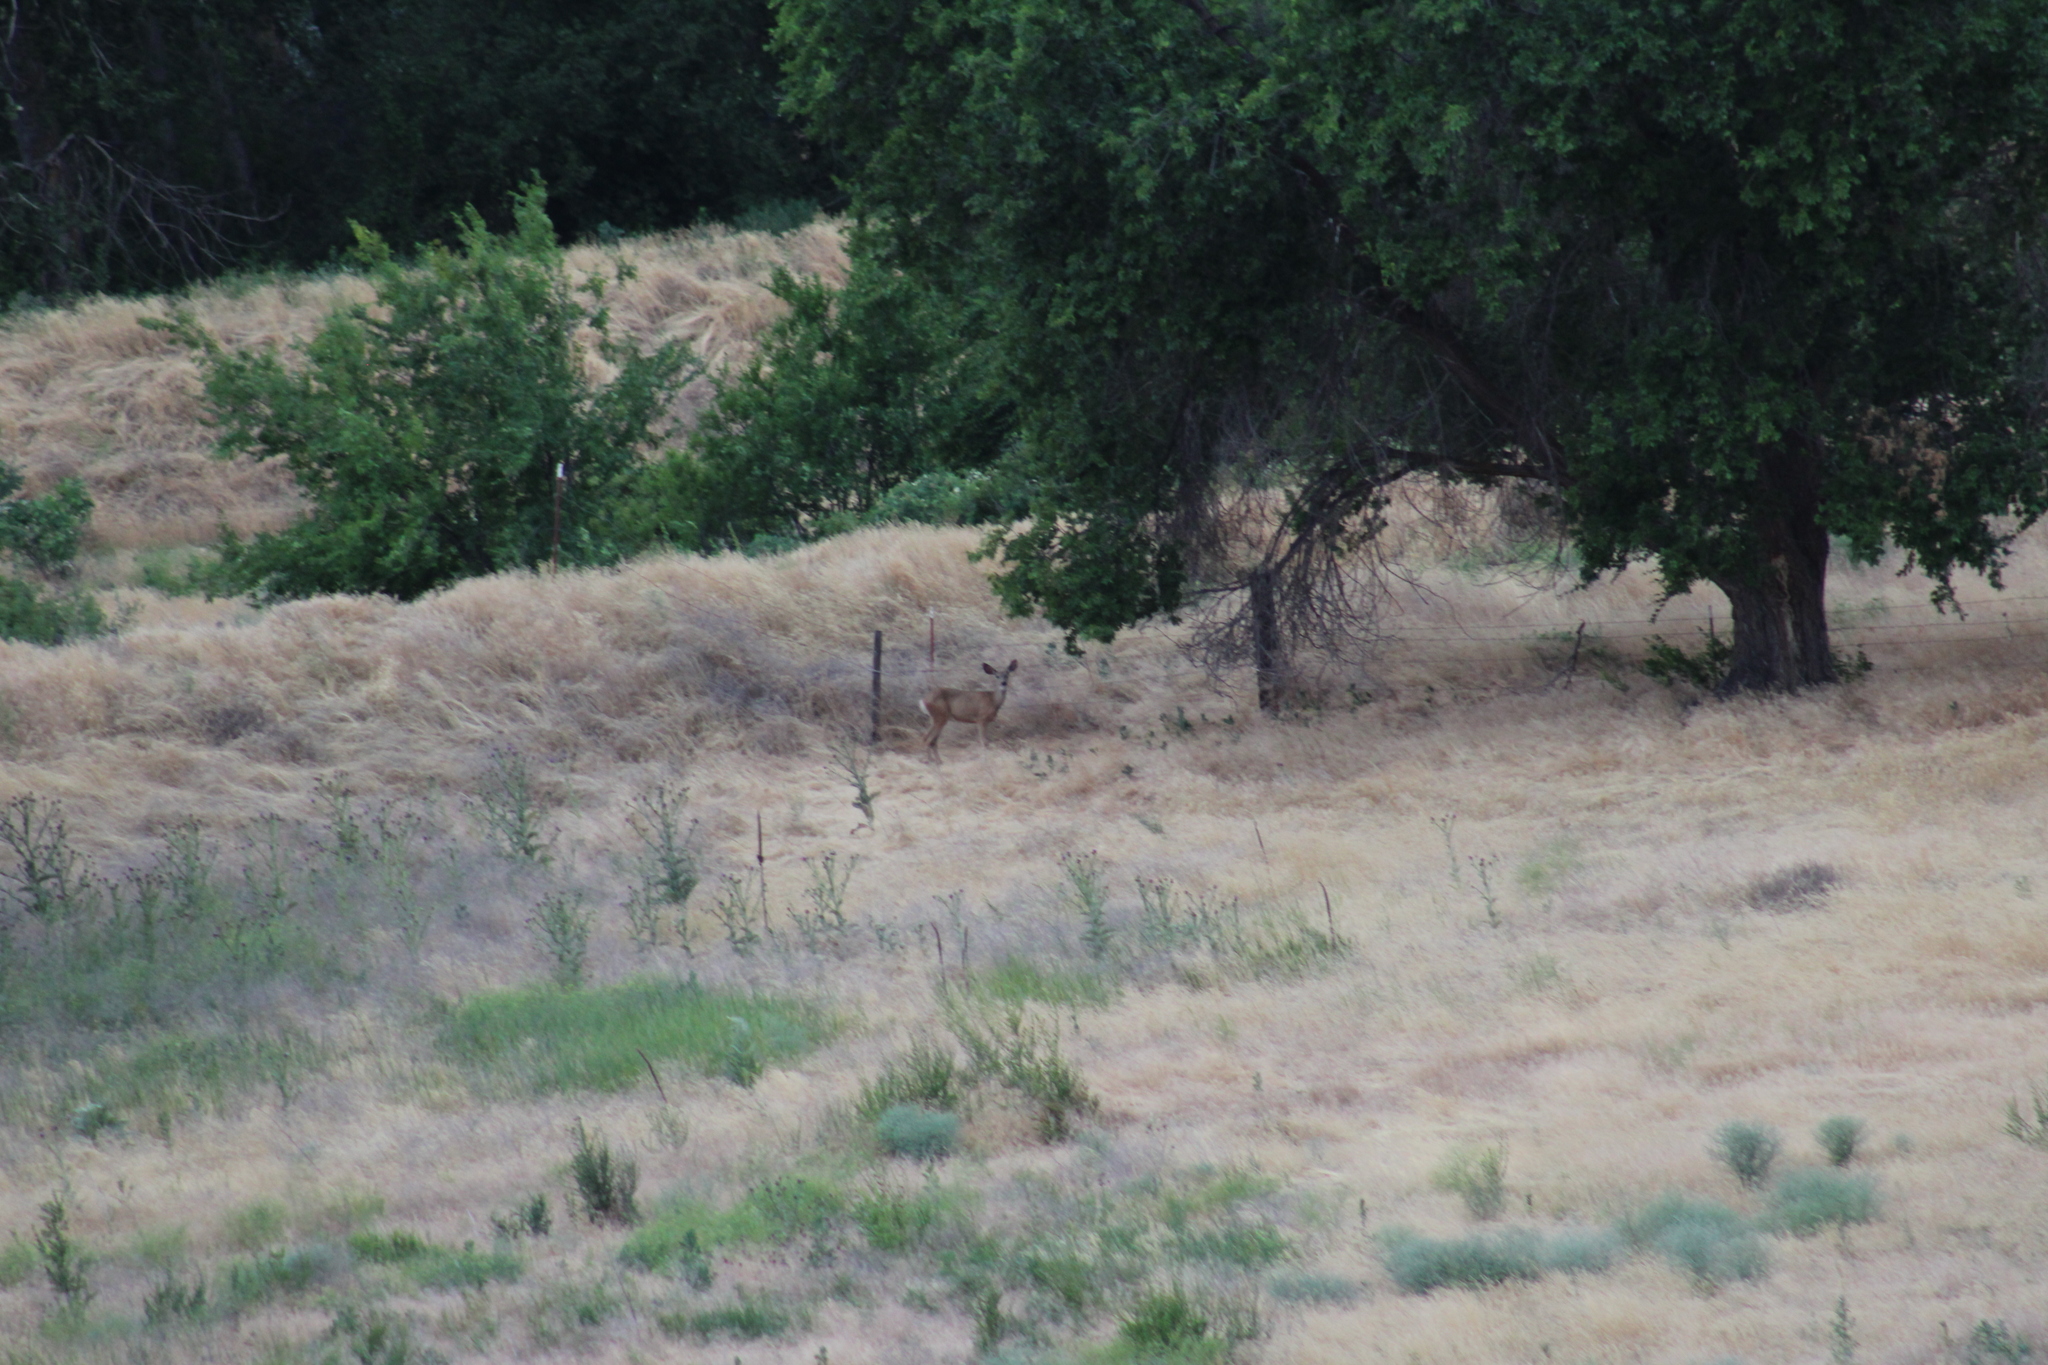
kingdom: Animalia
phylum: Chordata
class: Mammalia
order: Artiodactyla
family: Cervidae
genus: Odocoileus
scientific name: Odocoileus hemionus
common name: Mule deer
